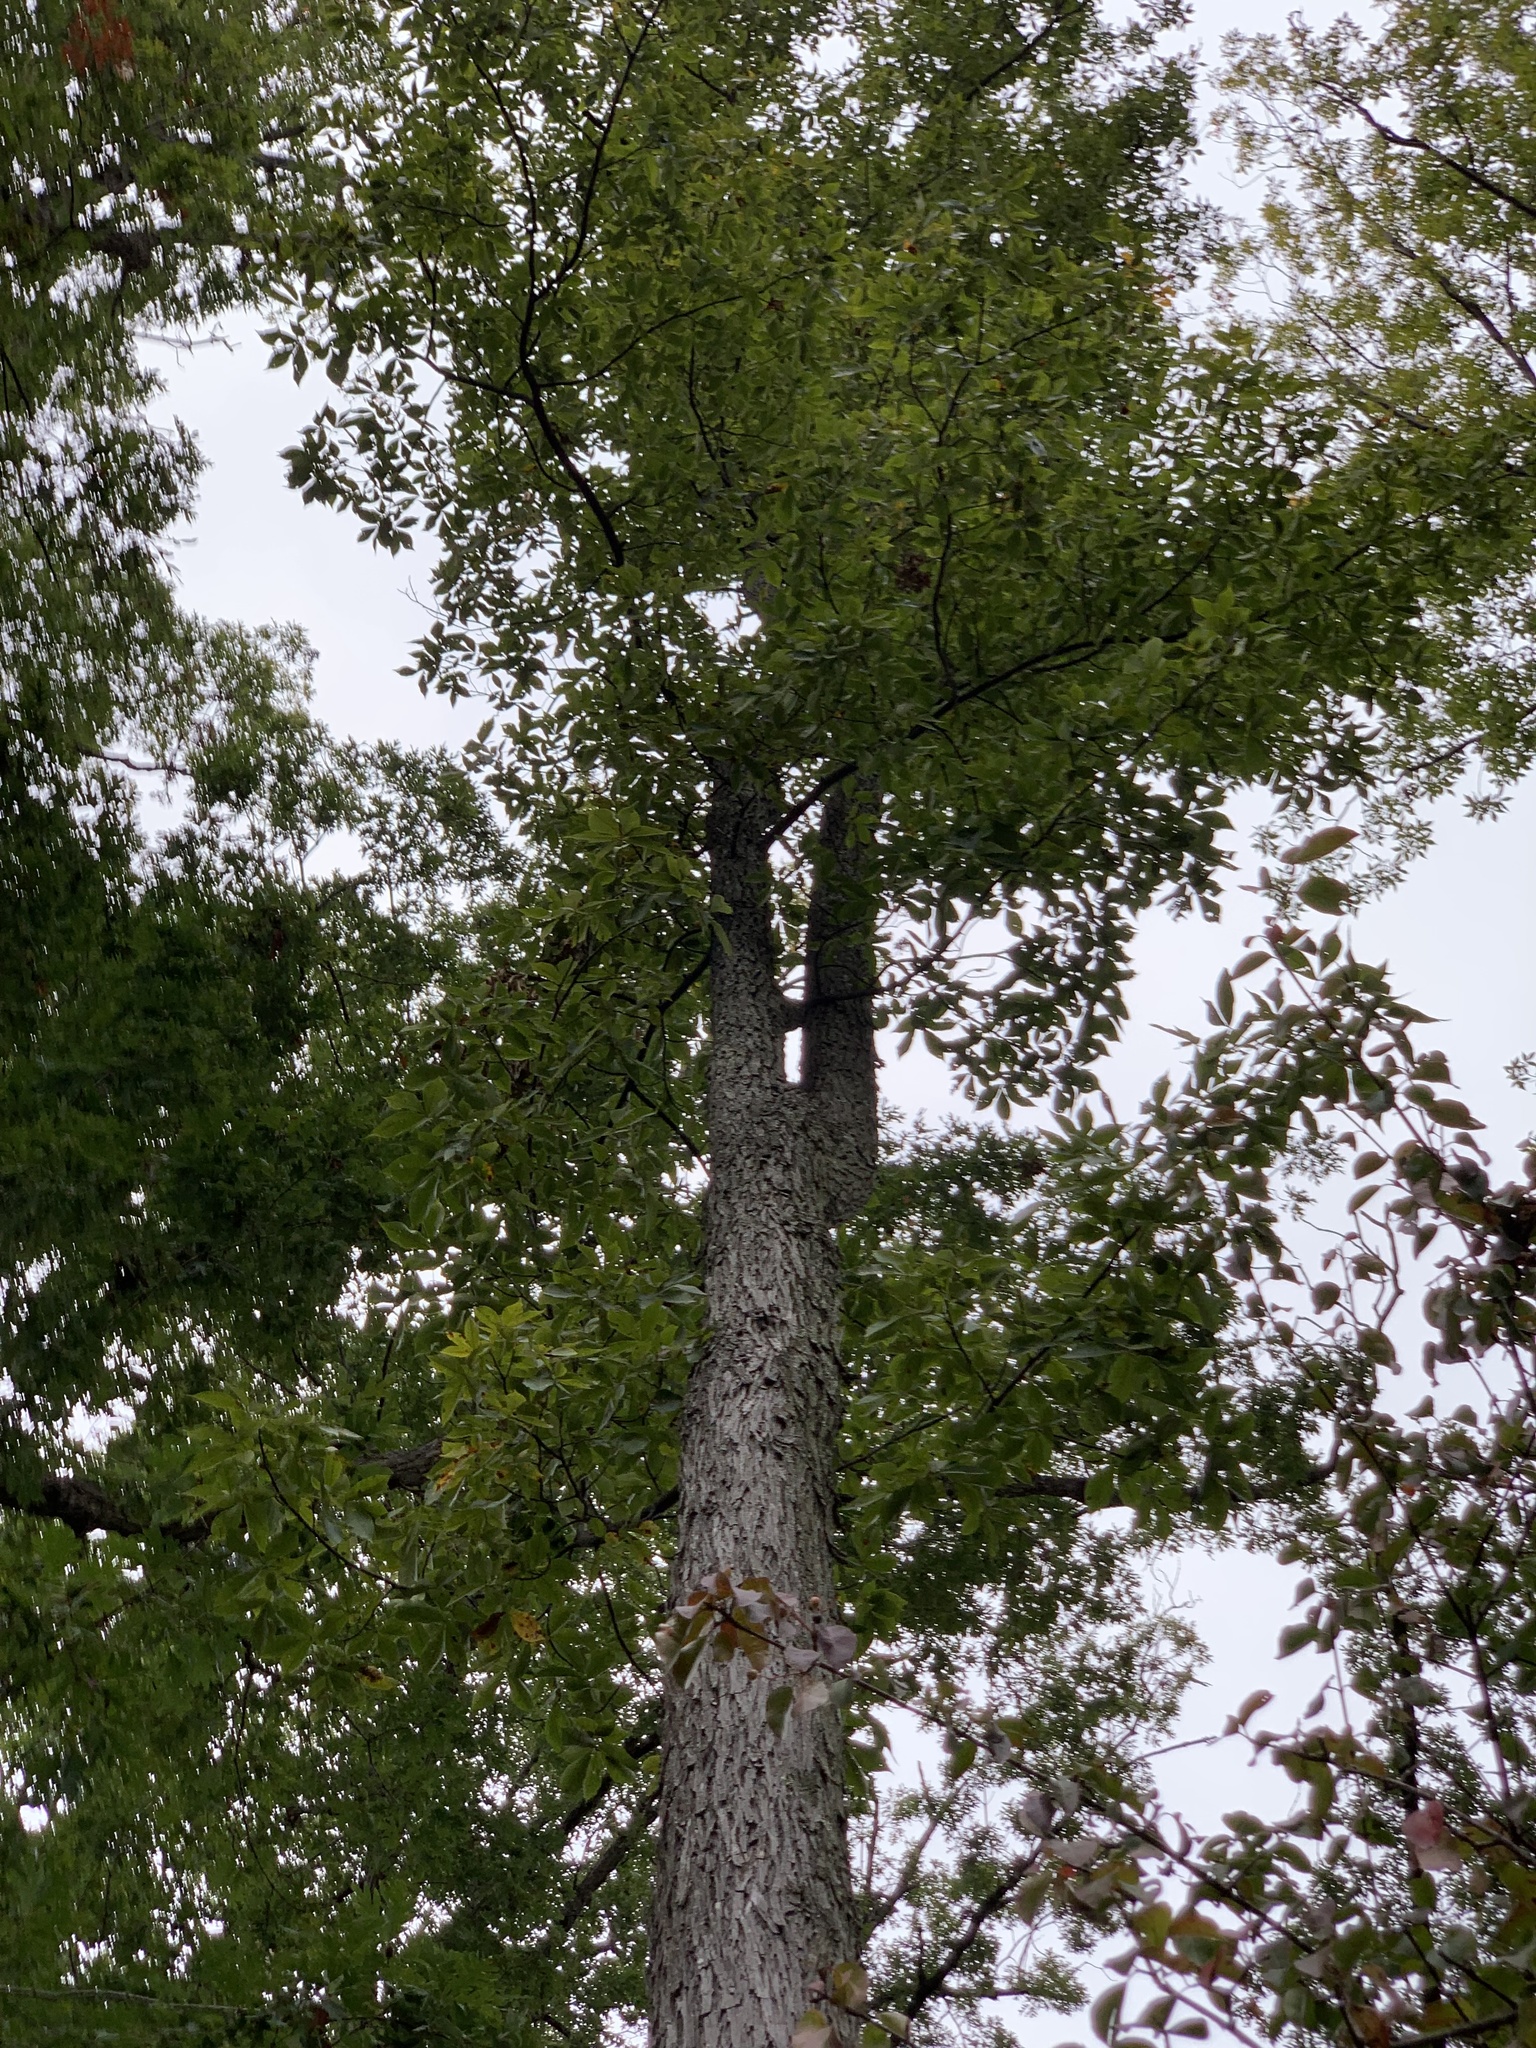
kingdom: Plantae
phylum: Tracheophyta
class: Magnoliopsida
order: Fagales
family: Juglandaceae
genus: Carya
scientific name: Carya ovalis
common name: False shagbark
